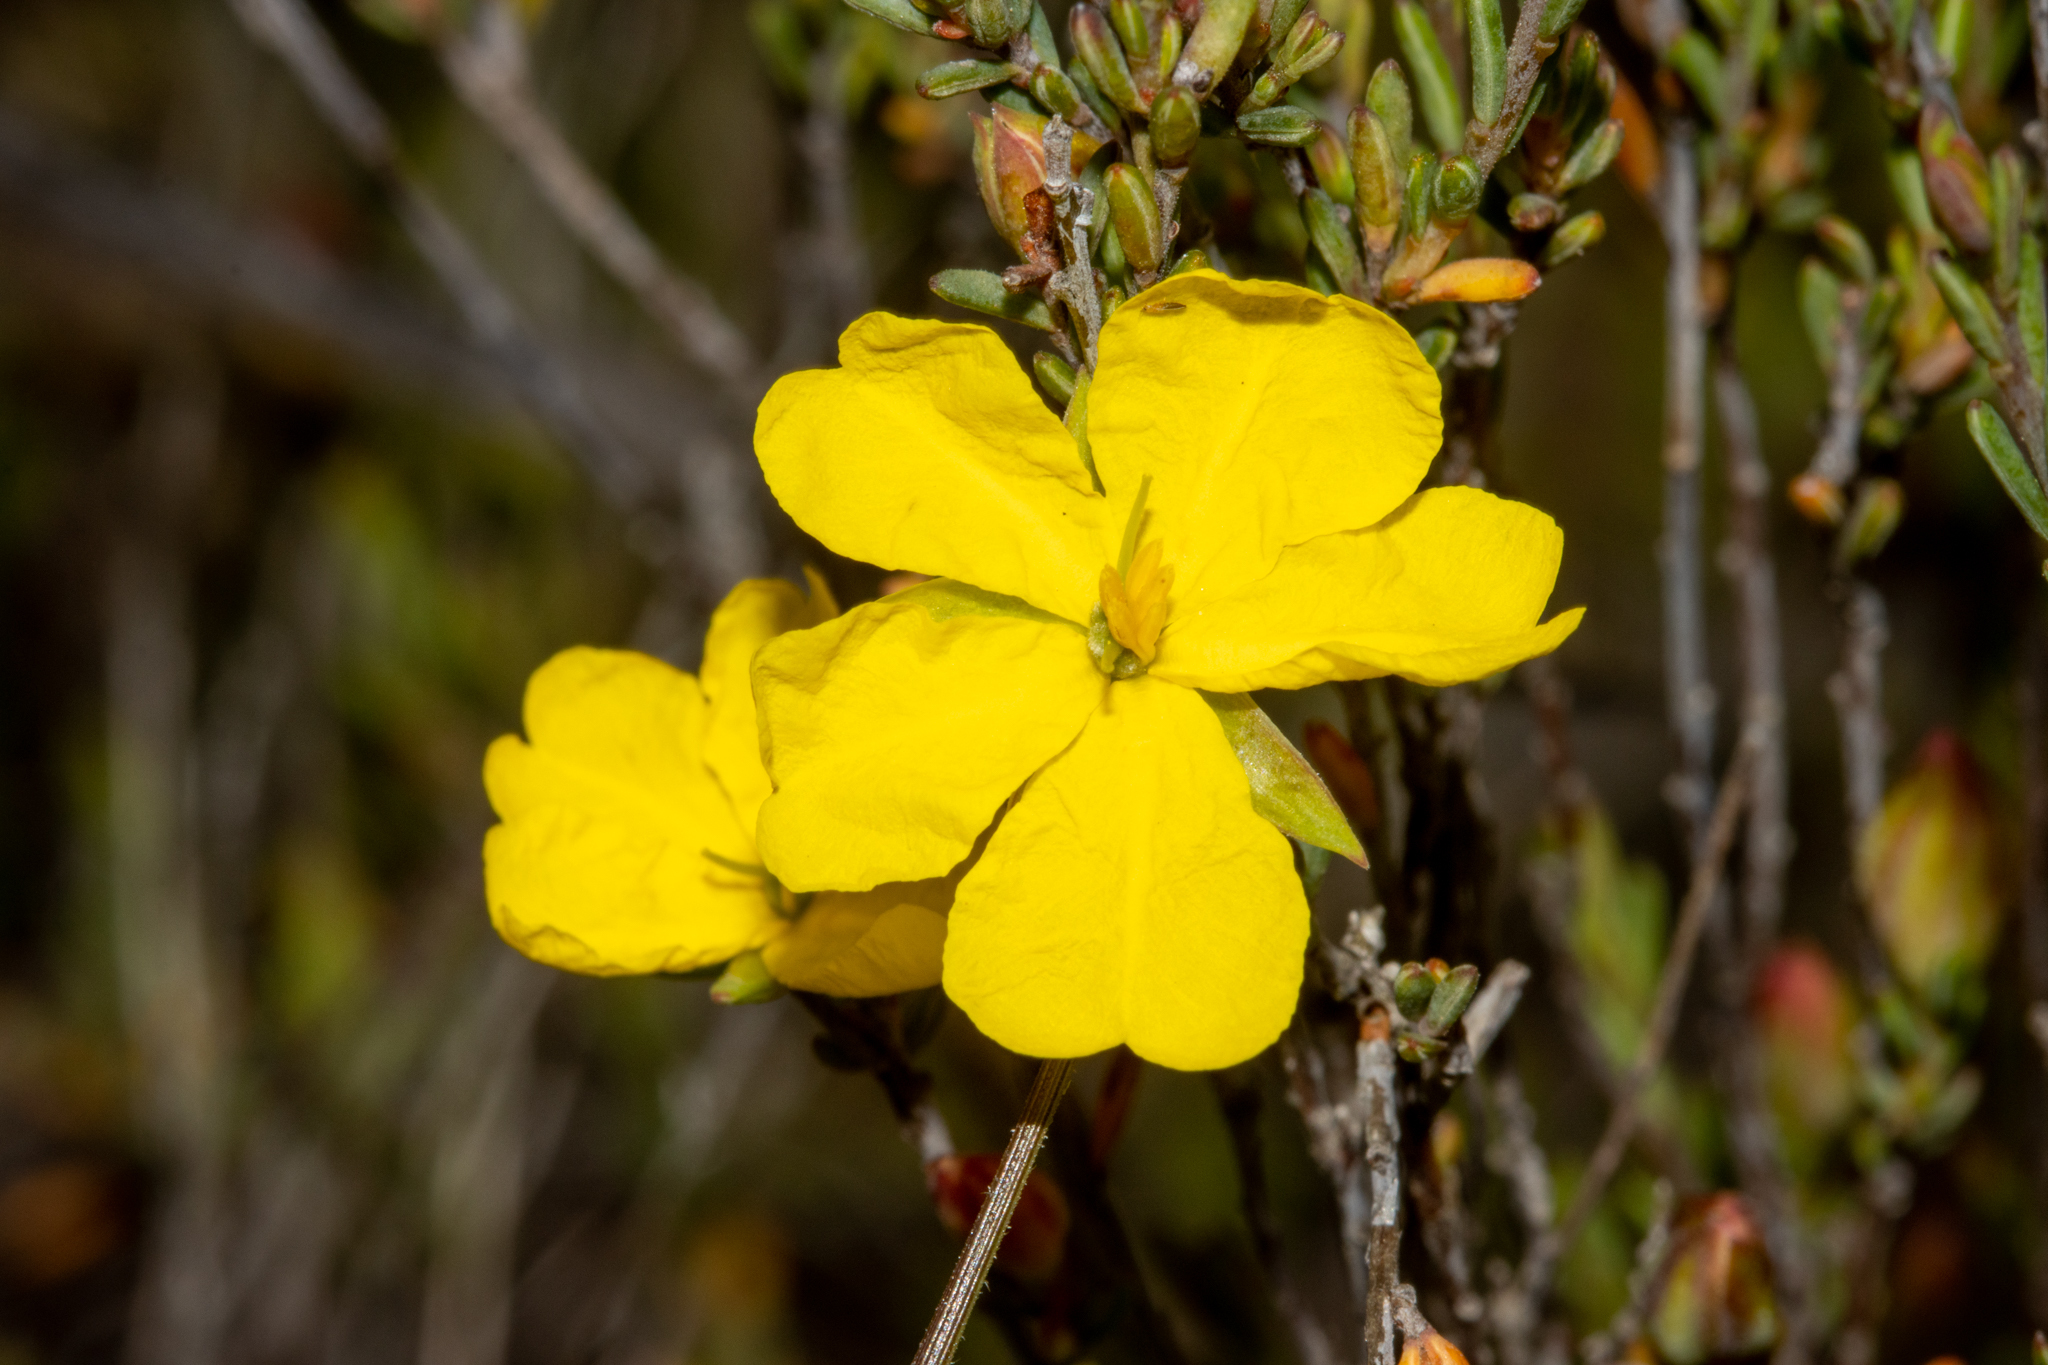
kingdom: Plantae
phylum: Tracheophyta
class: Magnoliopsida
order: Dilleniales
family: Dilleniaceae
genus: Hibbertia
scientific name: Hibbertia devitata
